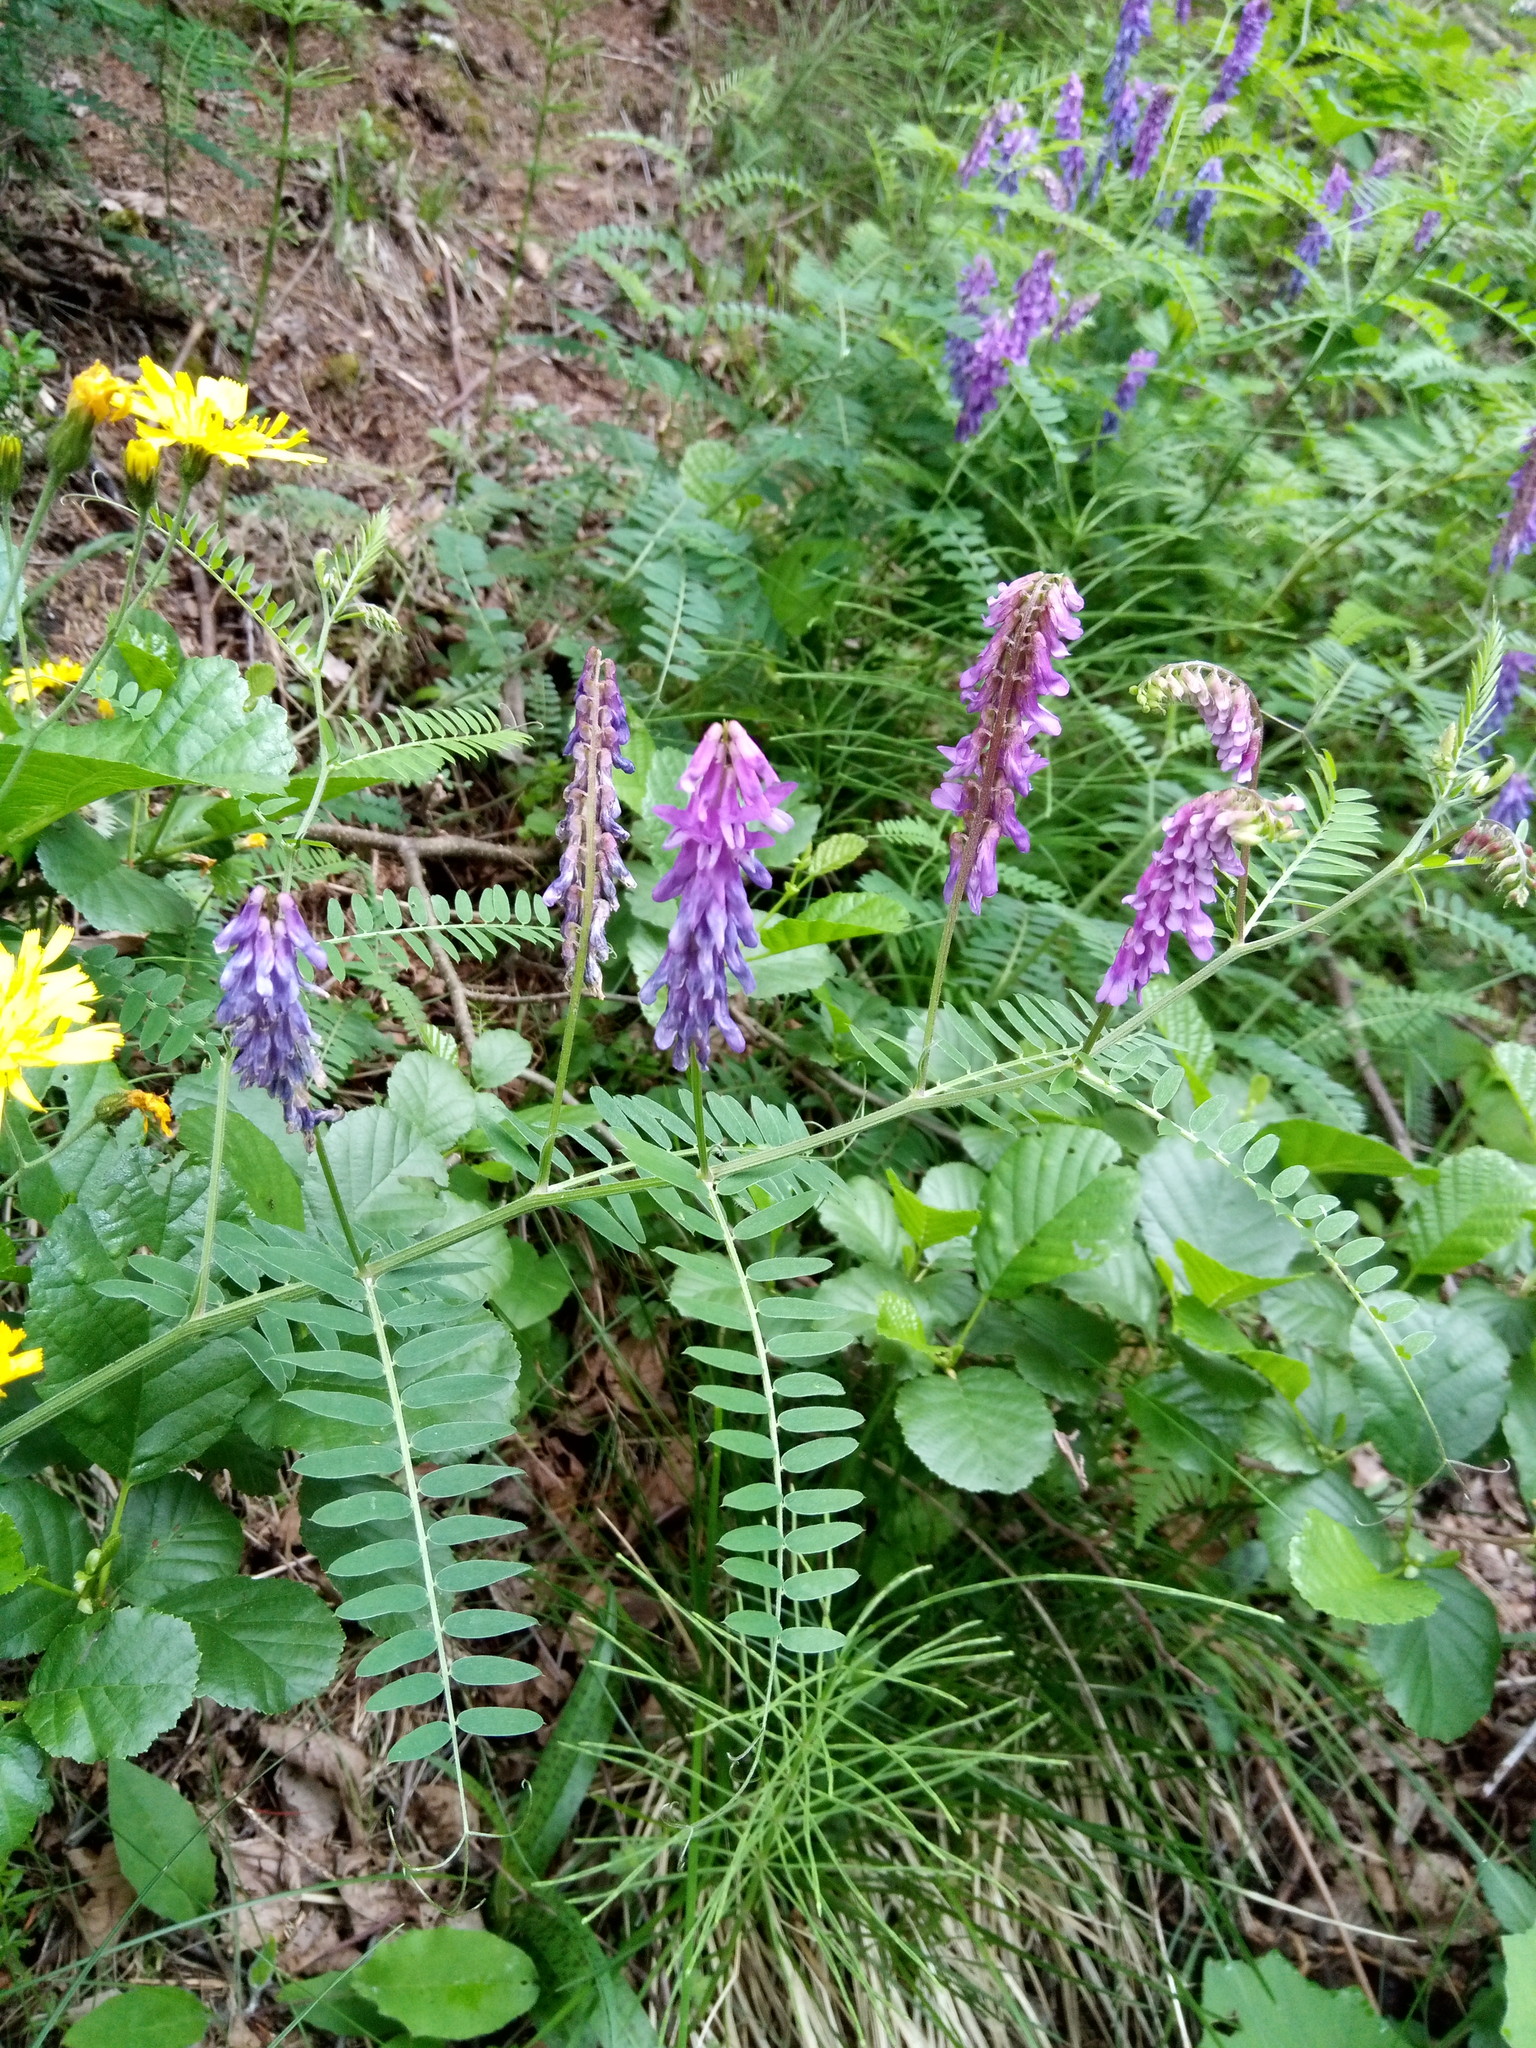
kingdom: Plantae
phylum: Tracheophyta
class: Magnoliopsida
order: Fabales
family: Fabaceae
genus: Vicia
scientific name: Vicia cracca
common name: Bird vetch
